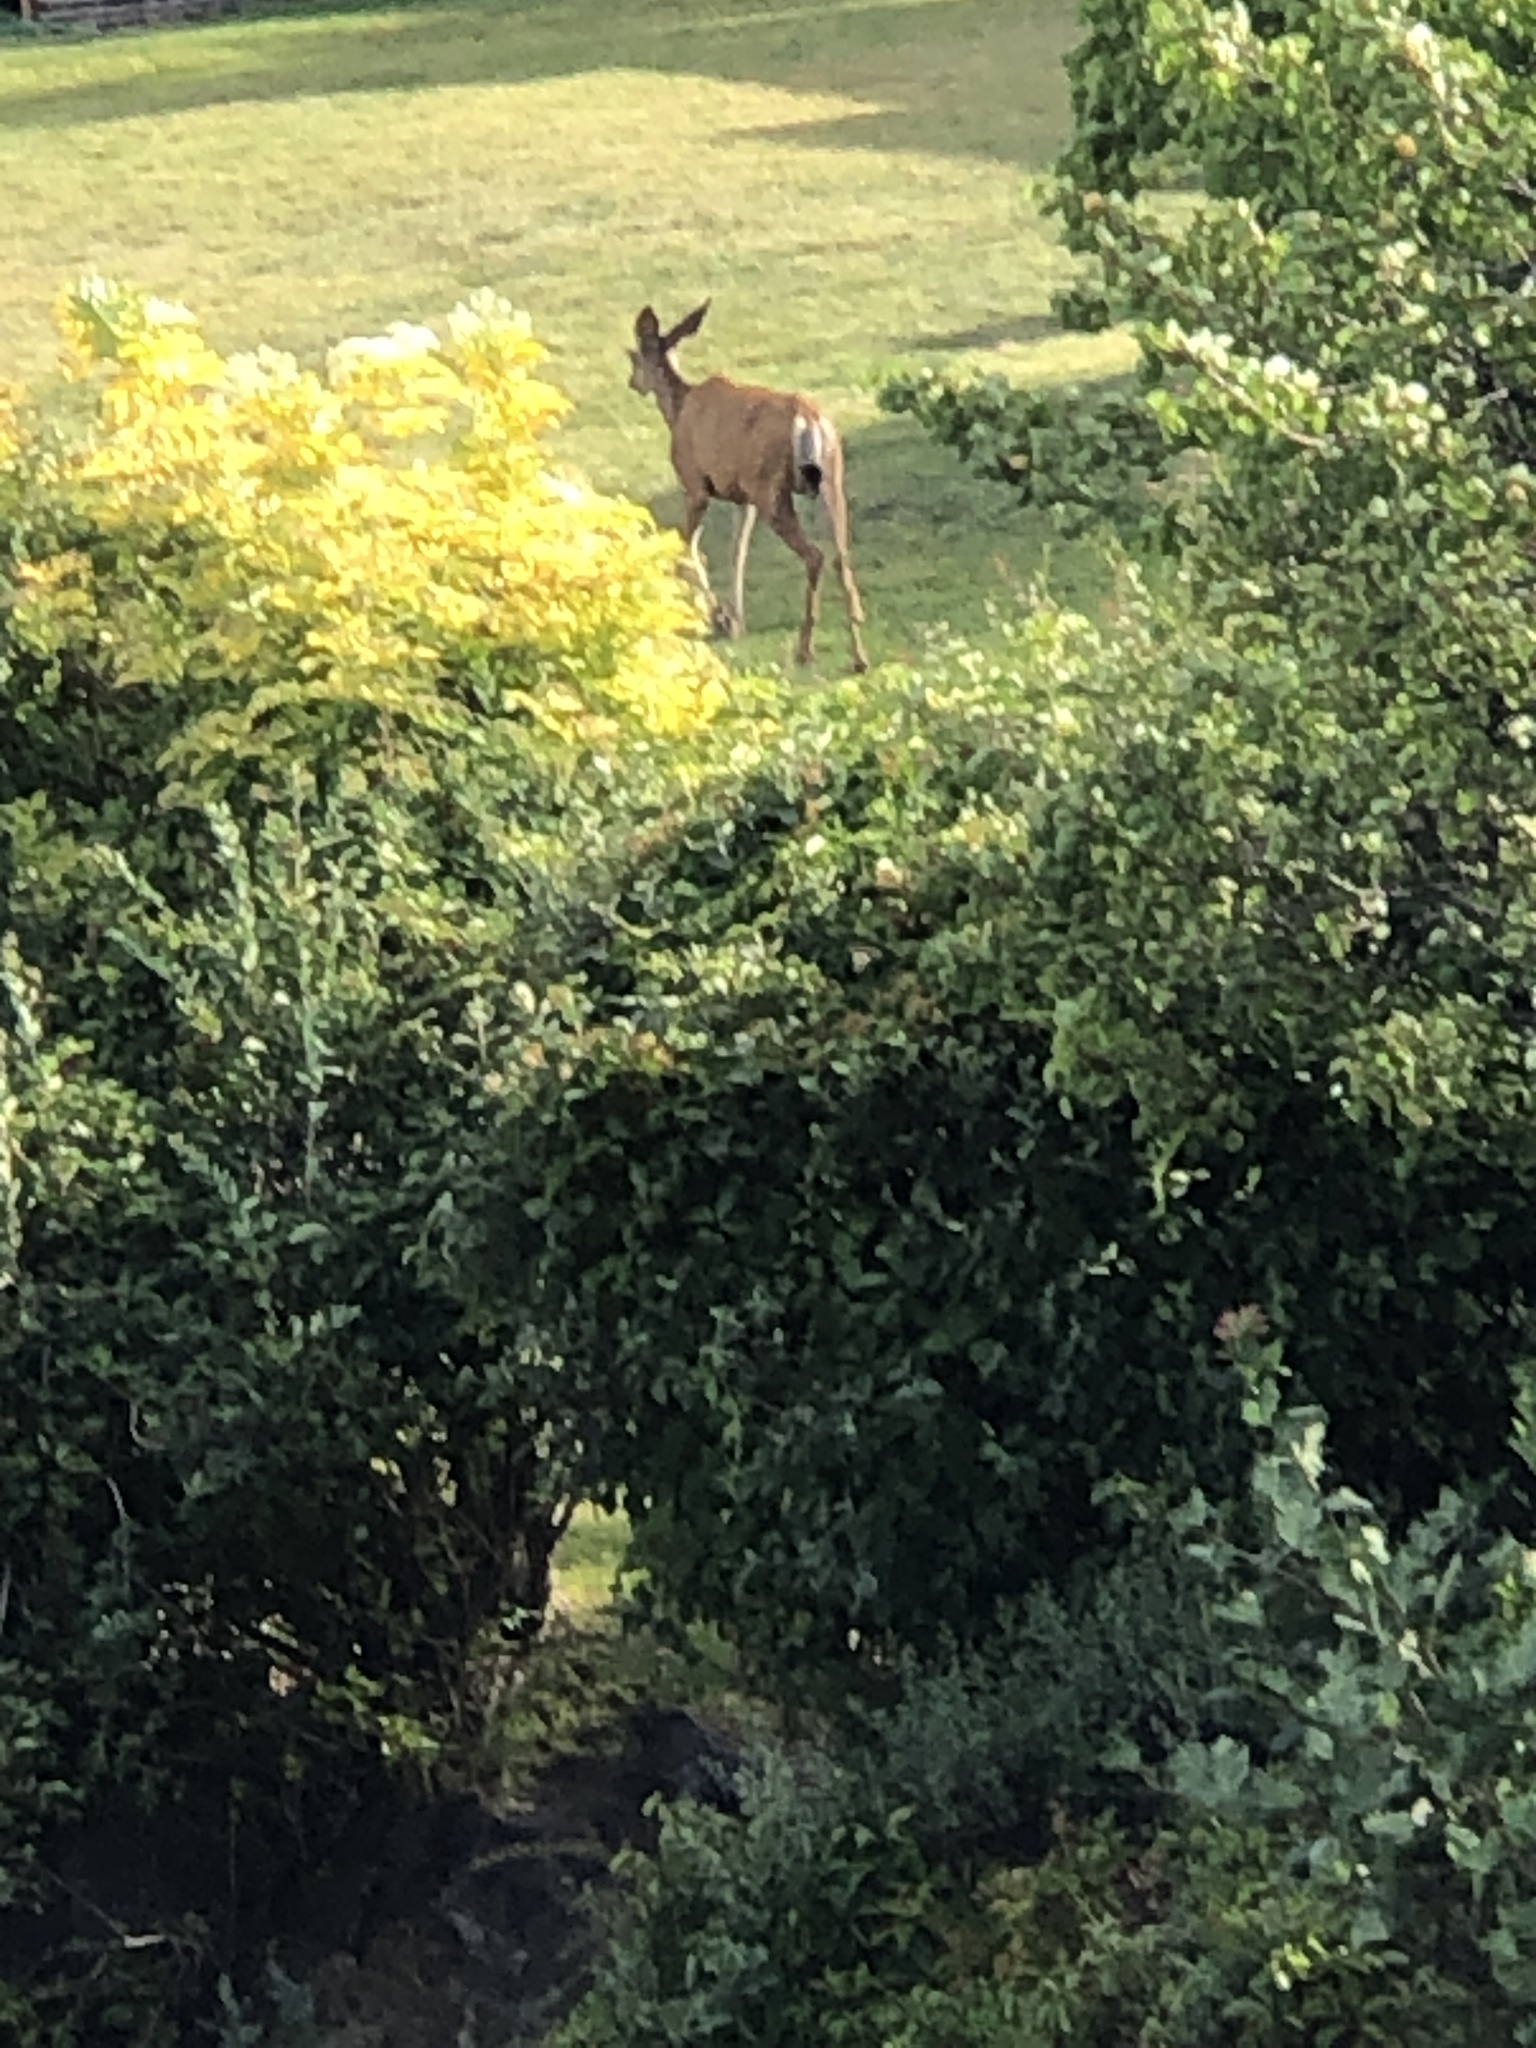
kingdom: Animalia
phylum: Chordata
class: Mammalia
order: Artiodactyla
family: Cervidae
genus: Odocoileus
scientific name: Odocoileus hemionus
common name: Mule deer
